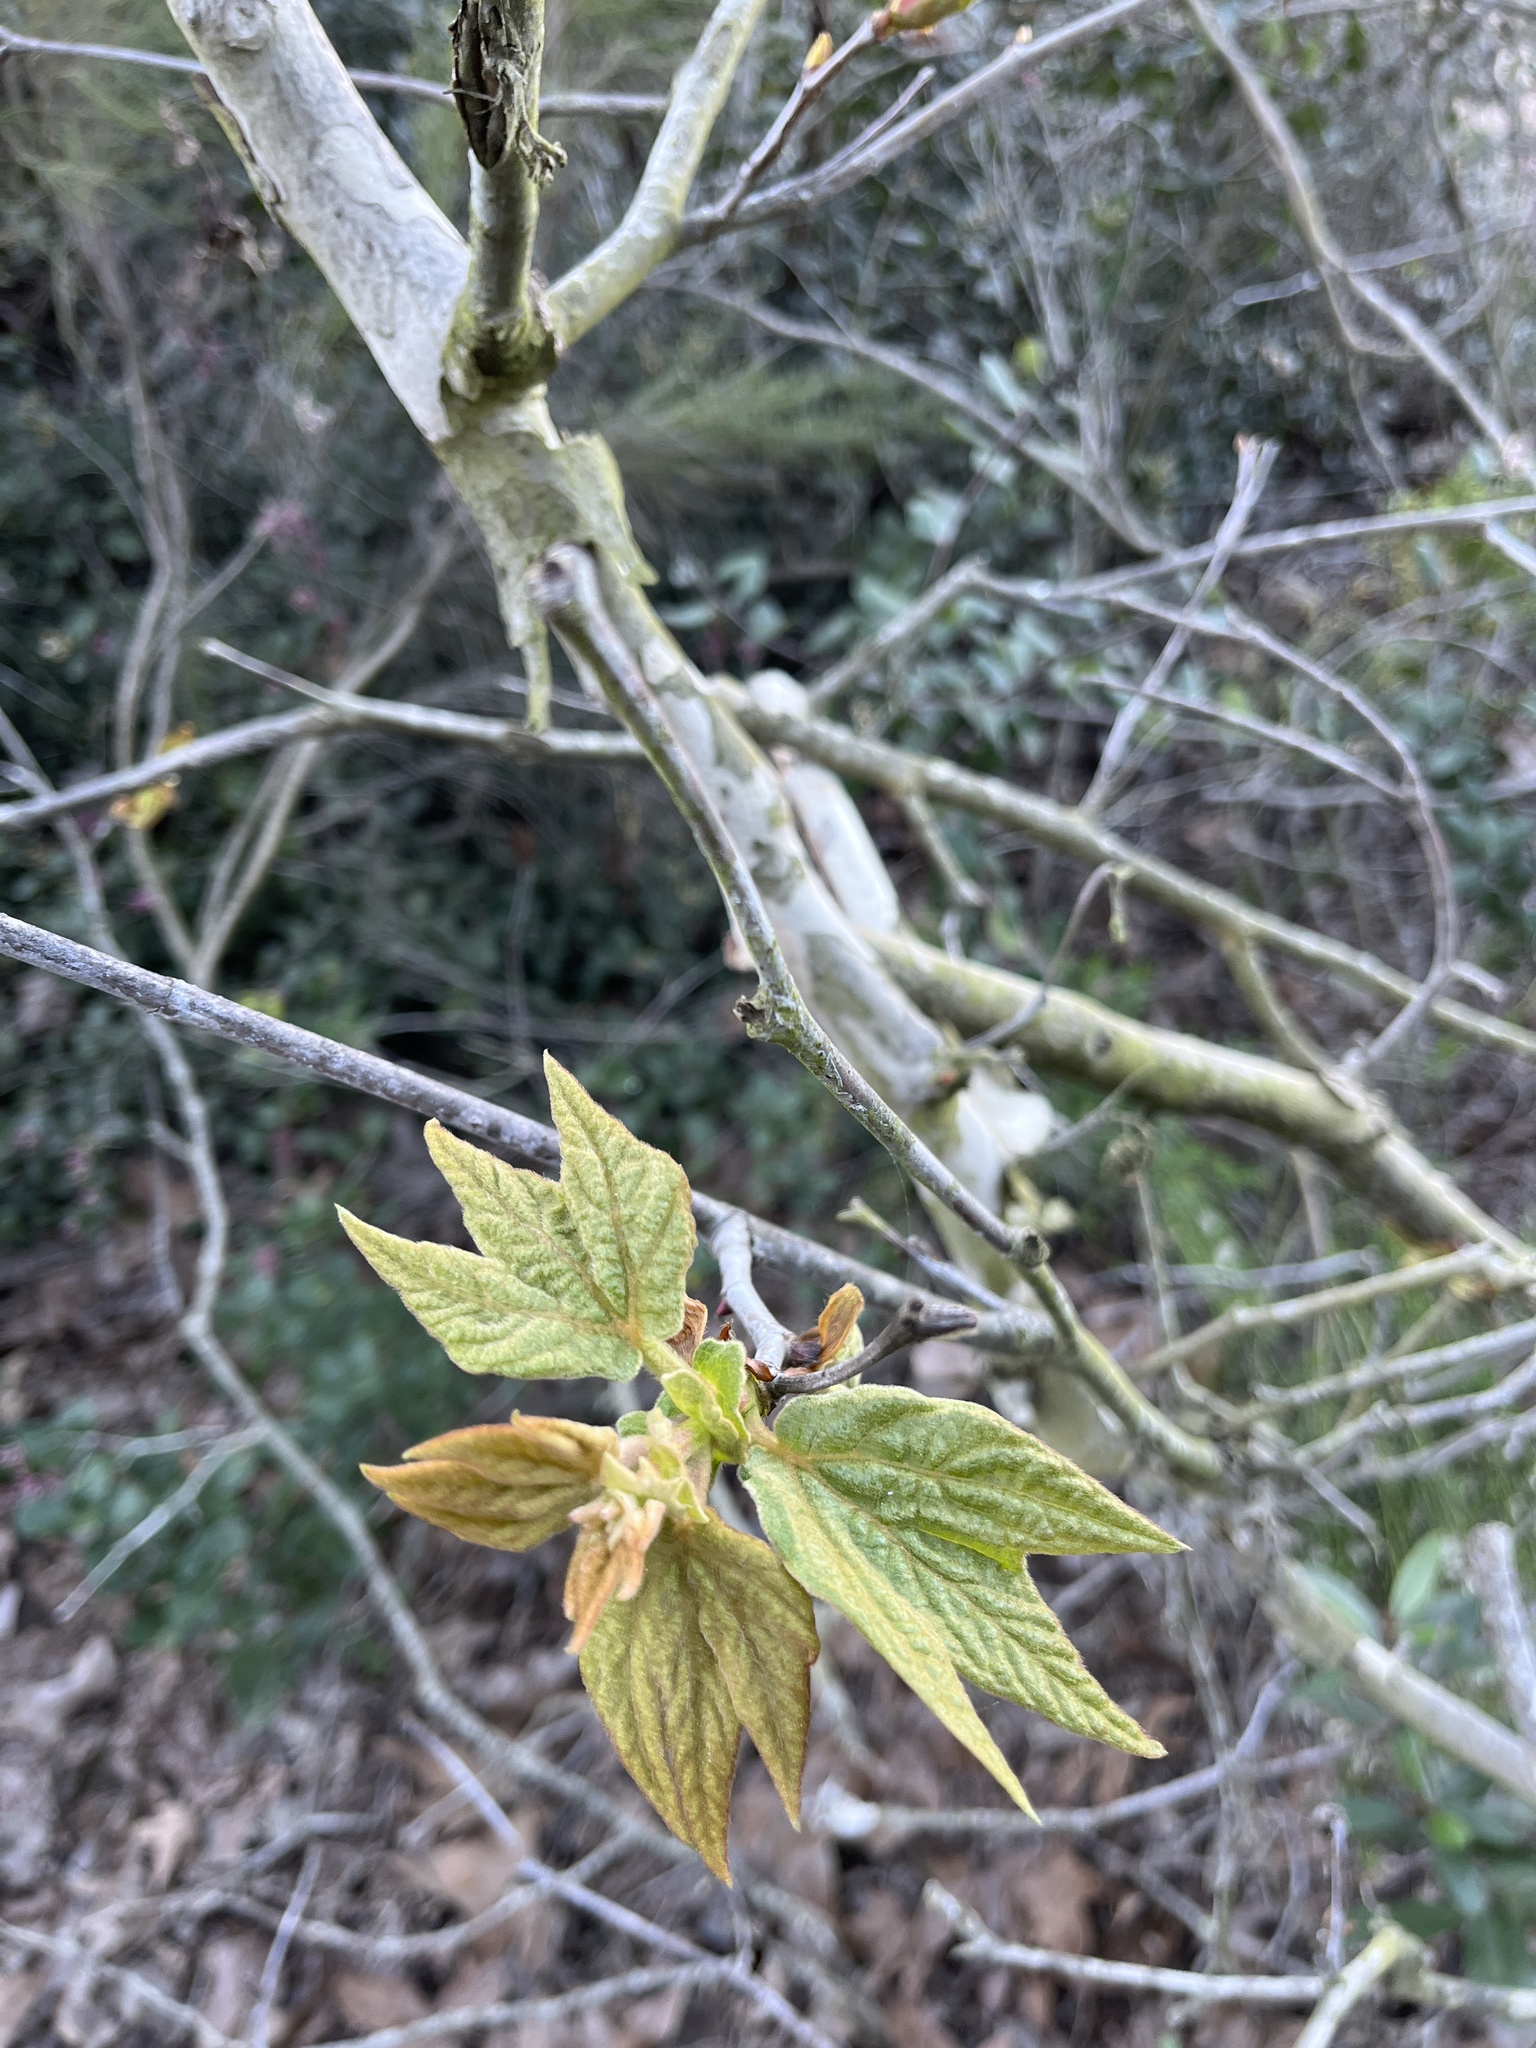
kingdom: Plantae
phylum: Tracheophyta
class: Magnoliopsida
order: Proteales
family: Platanaceae
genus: Platanus
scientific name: Platanus racemosa
